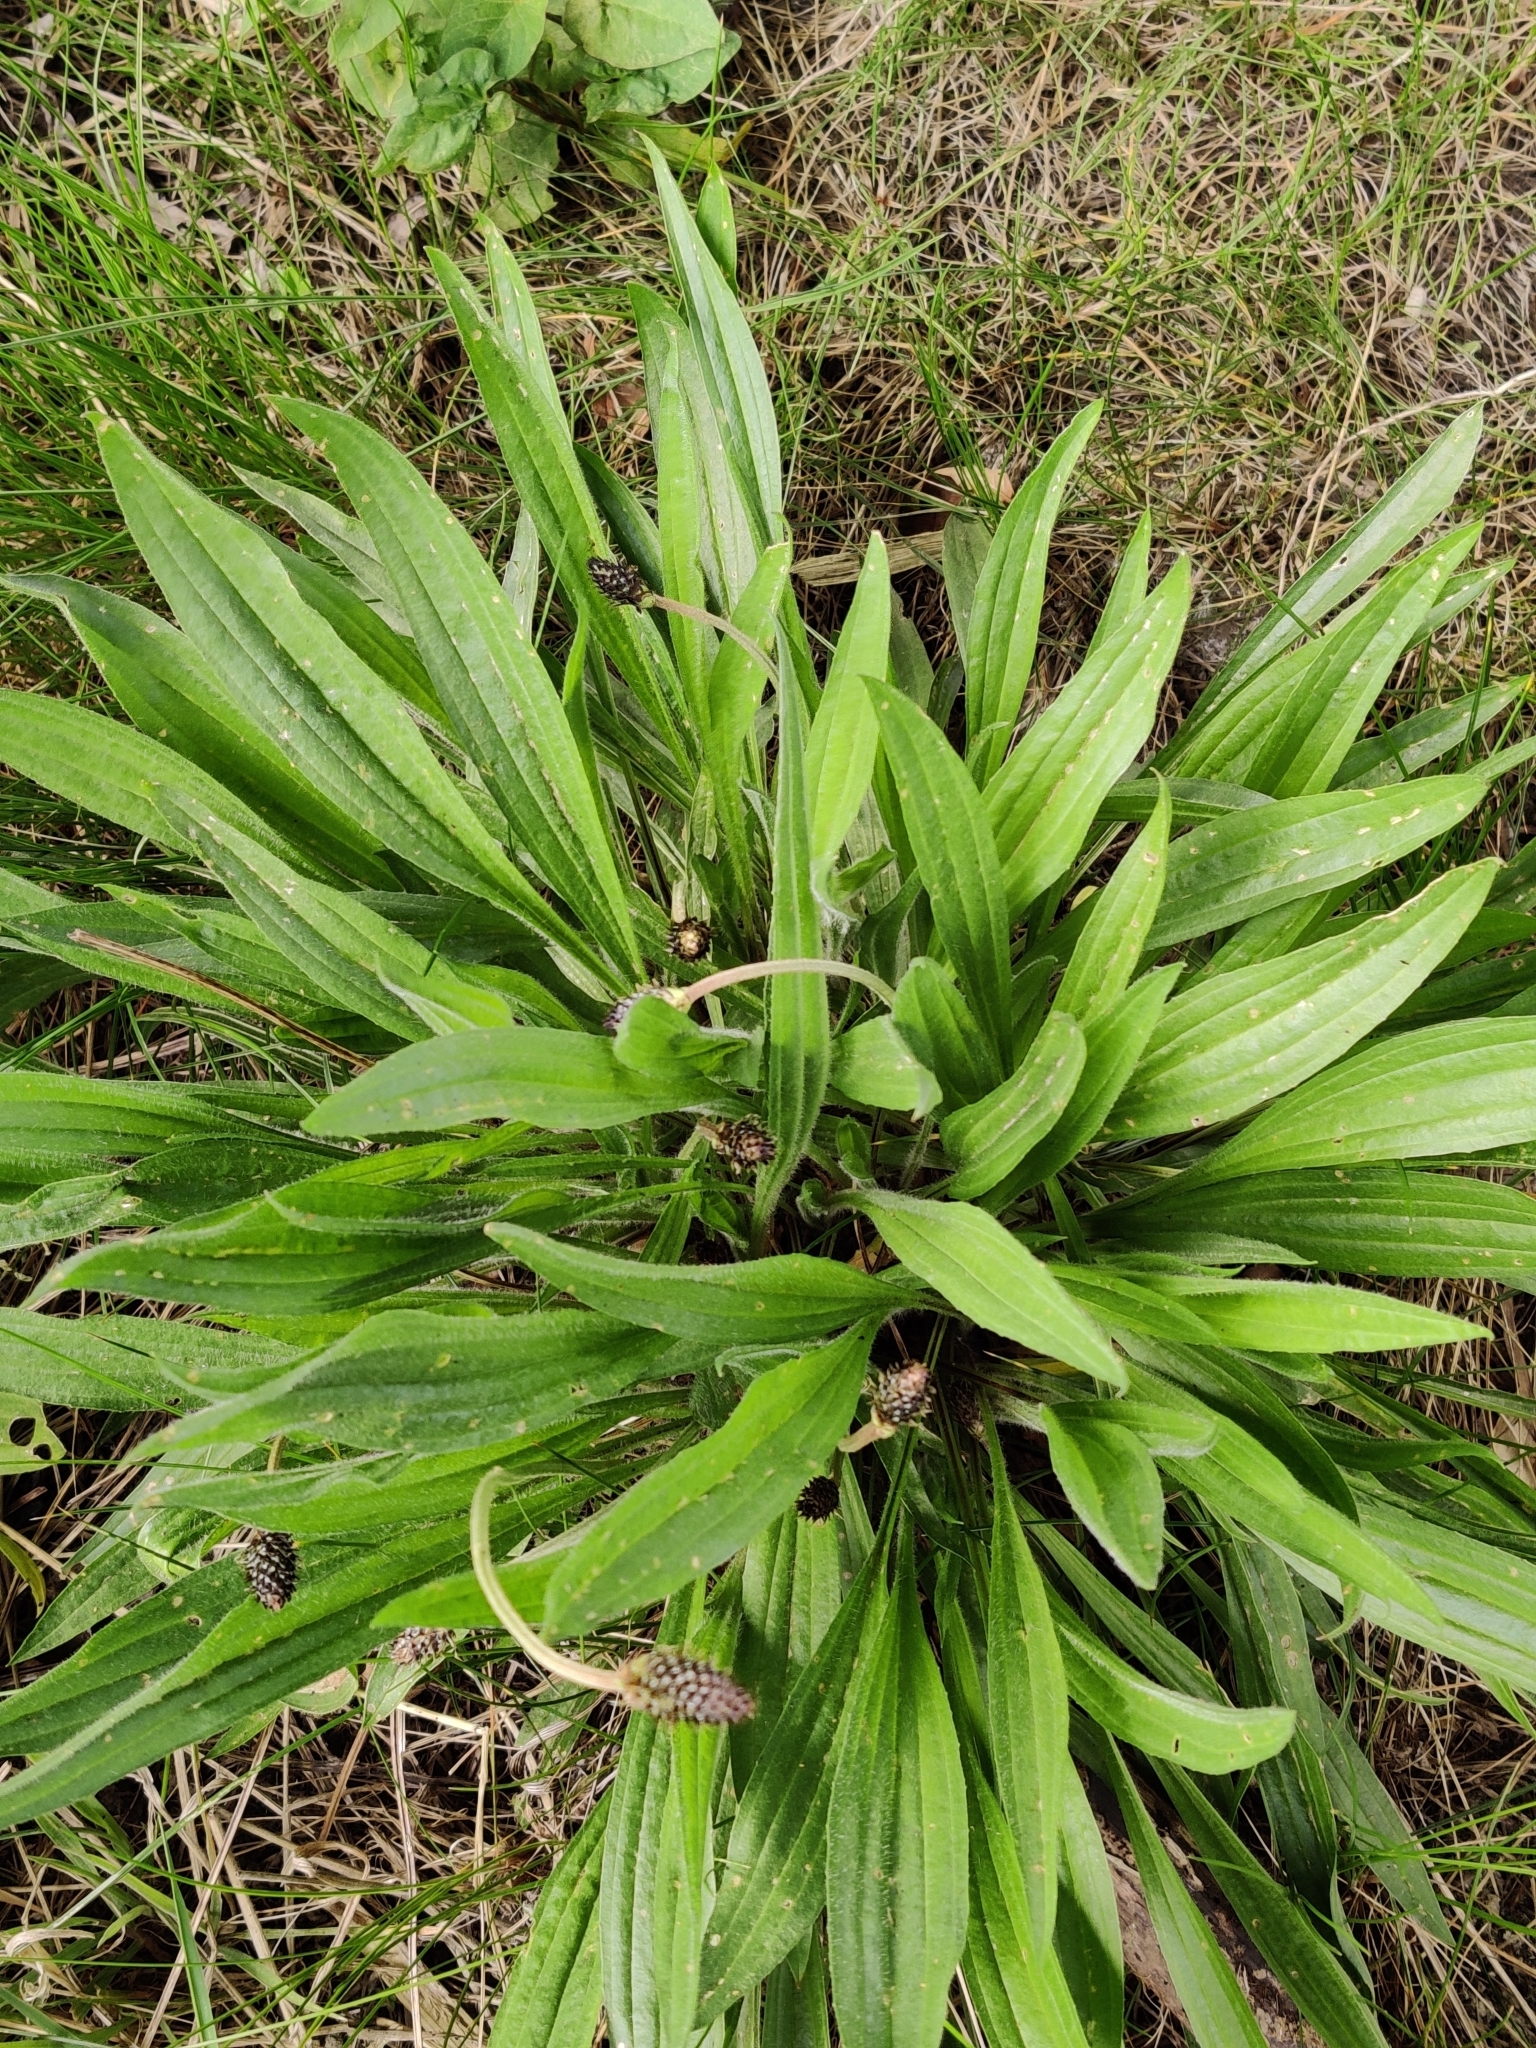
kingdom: Plantae
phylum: Tracheophyta
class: Magnoliopsida
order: Lamiales
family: Plantaginaceae
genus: Plantago
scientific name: Plantago lanceolata
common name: Ribwort plantain
